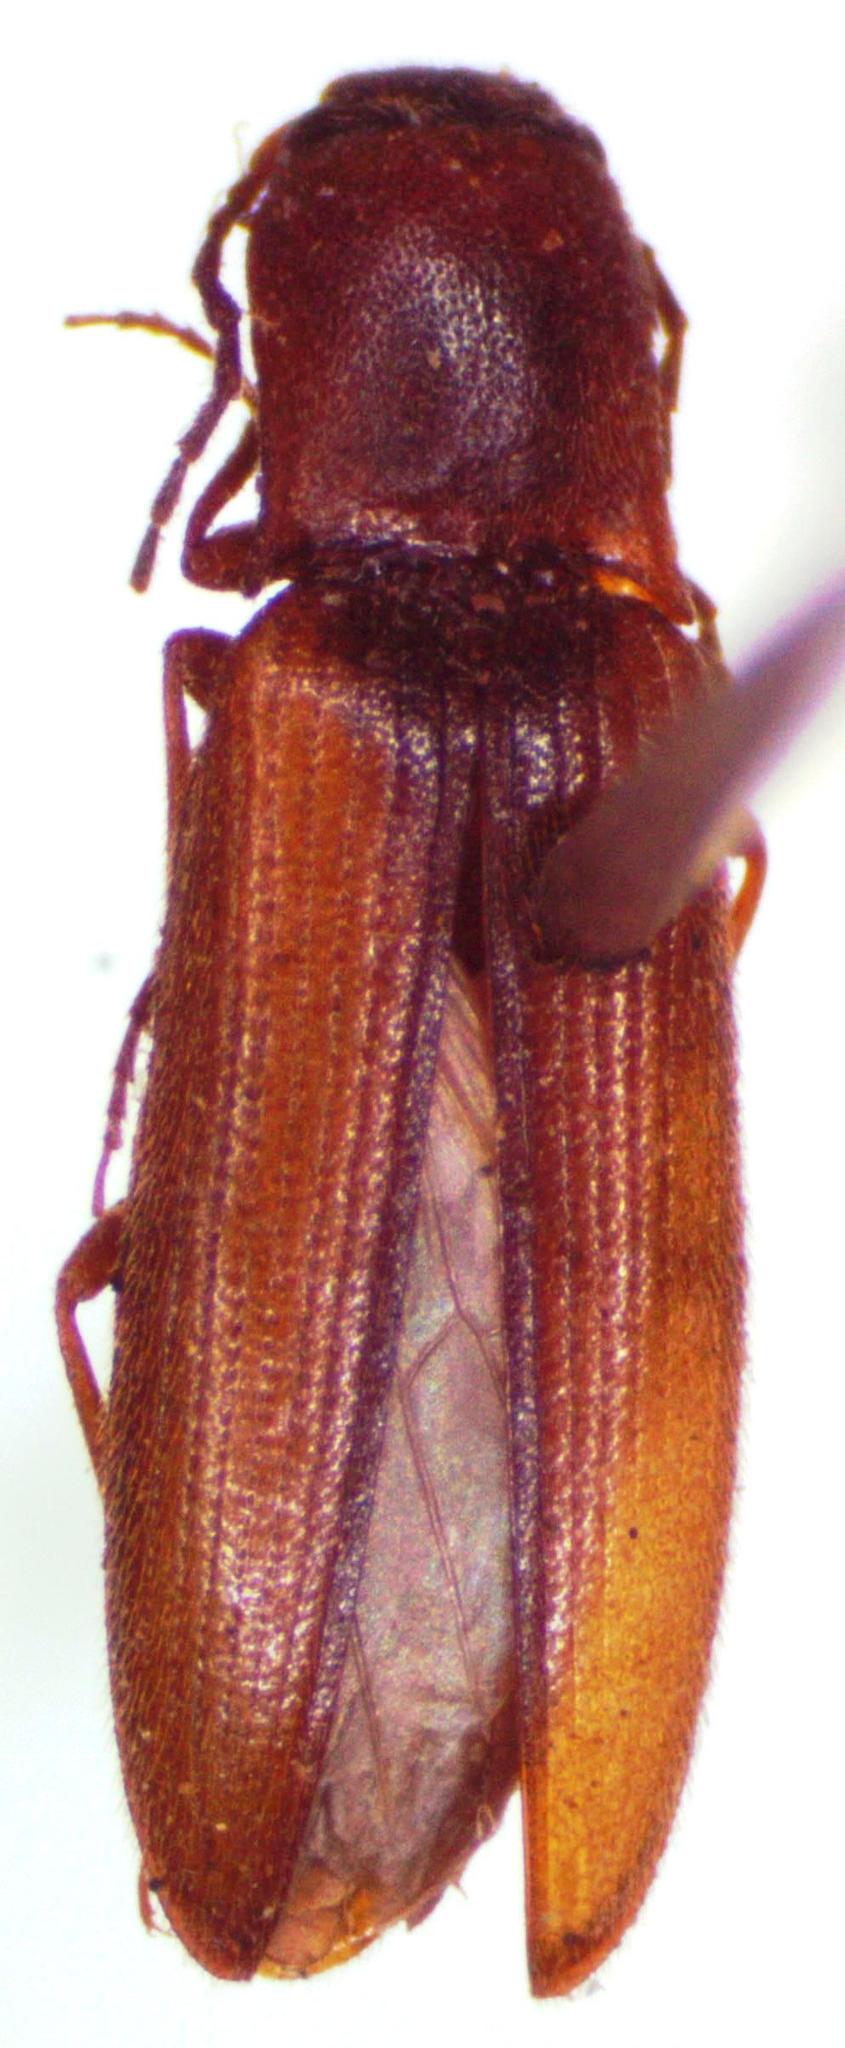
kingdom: Animalia
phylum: Arthropoda
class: Insecta
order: Coleoptera
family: Elateridae
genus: Dalopius
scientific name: Dalopius marginatus
